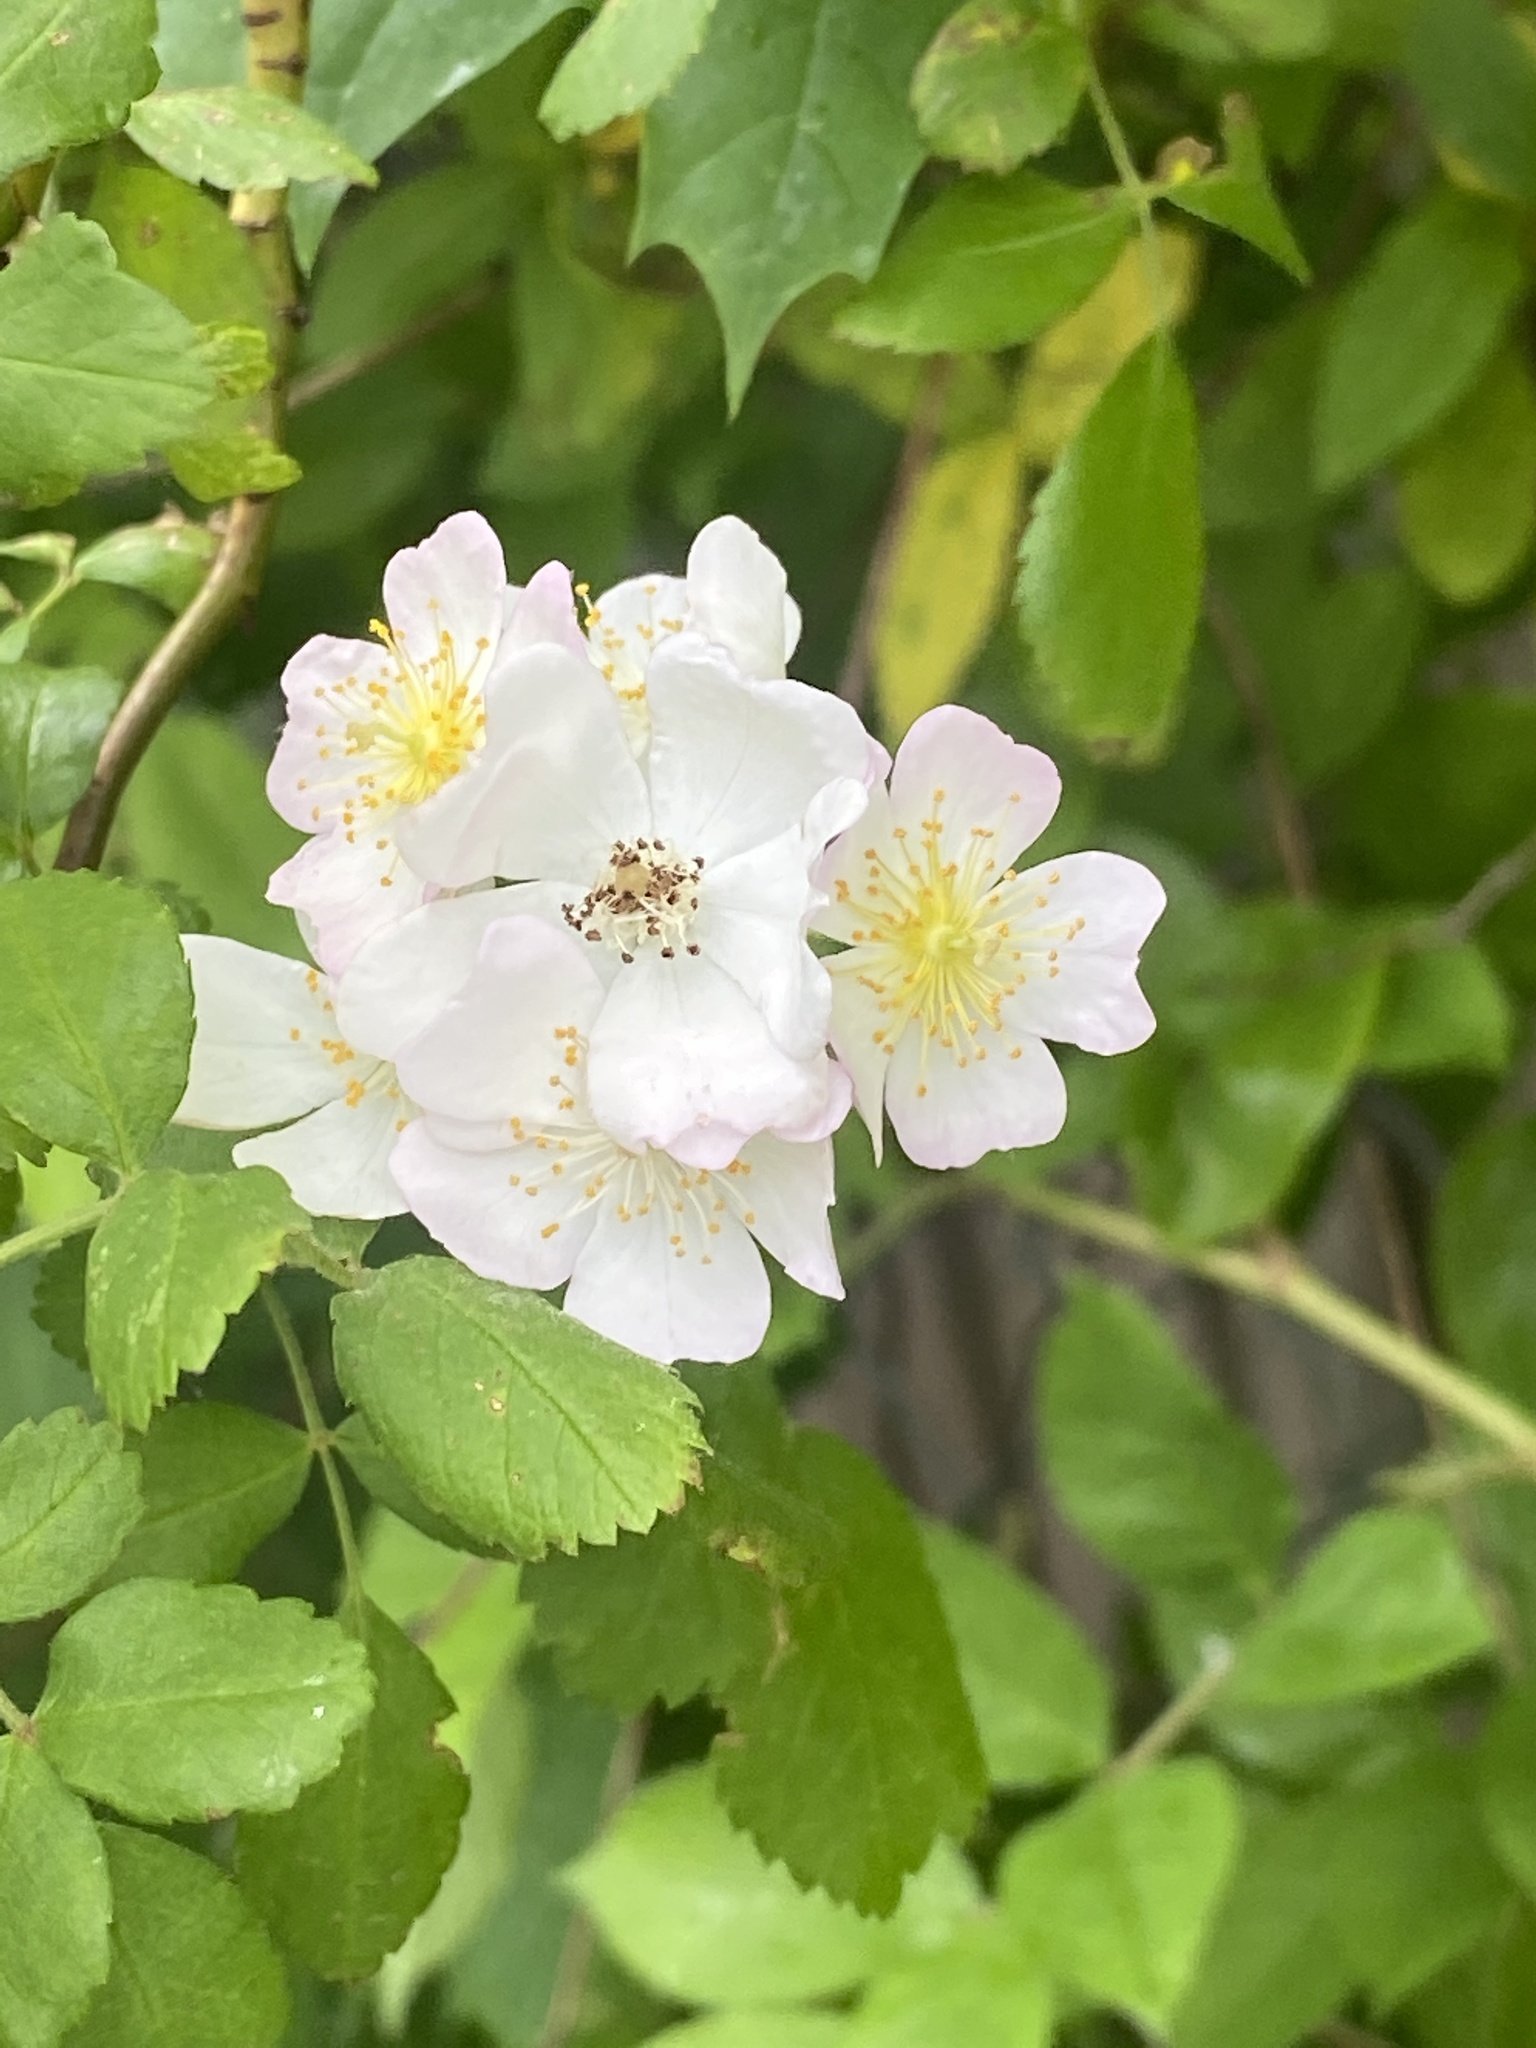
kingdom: Plantae
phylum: Tracheophyta
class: Magnoliopsida
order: Rosales
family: Rosaceae
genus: Rosa
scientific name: Rosa multiflora
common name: Multiflora rose
